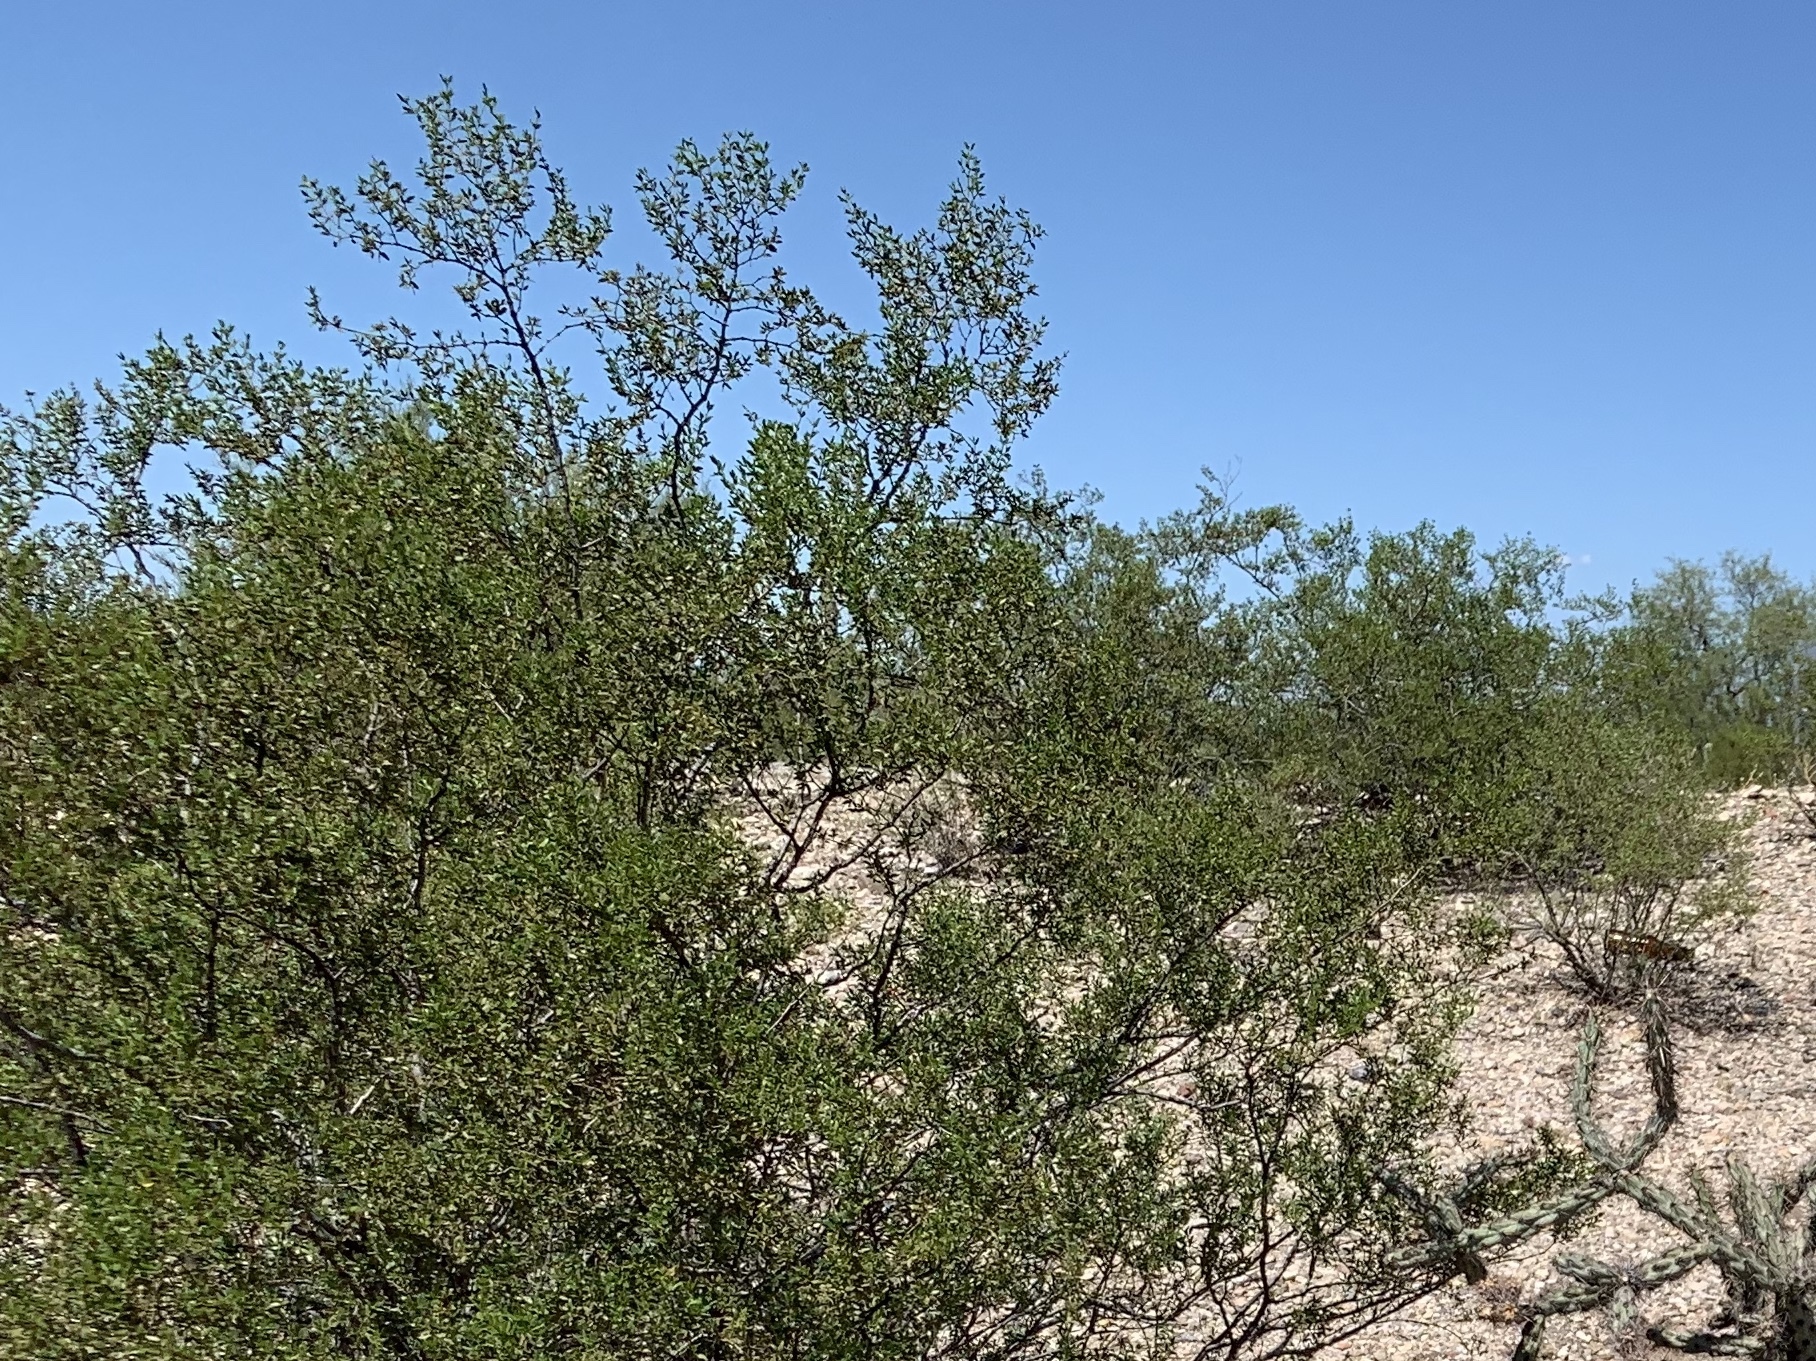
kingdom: Plantae
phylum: Tracheophyta
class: Magnoliopsida
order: Zygophyllales
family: Zygophyllaceae
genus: Larrea
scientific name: Larrea tridentata
